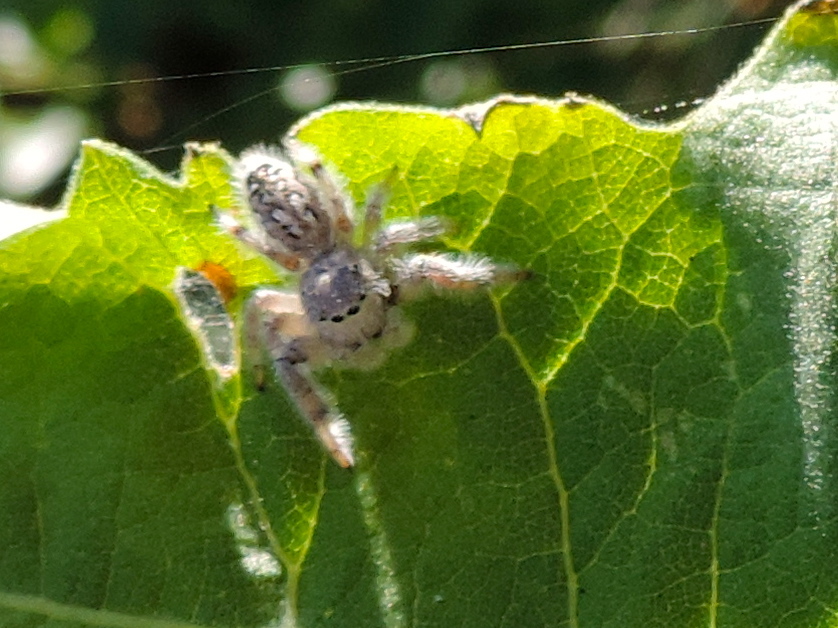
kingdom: Animalia
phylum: Arthropoda
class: Arachnida
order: Araneae
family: Salticidae
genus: Paraphidippus
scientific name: Paraphidippus fartilis
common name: Jumping spiders
